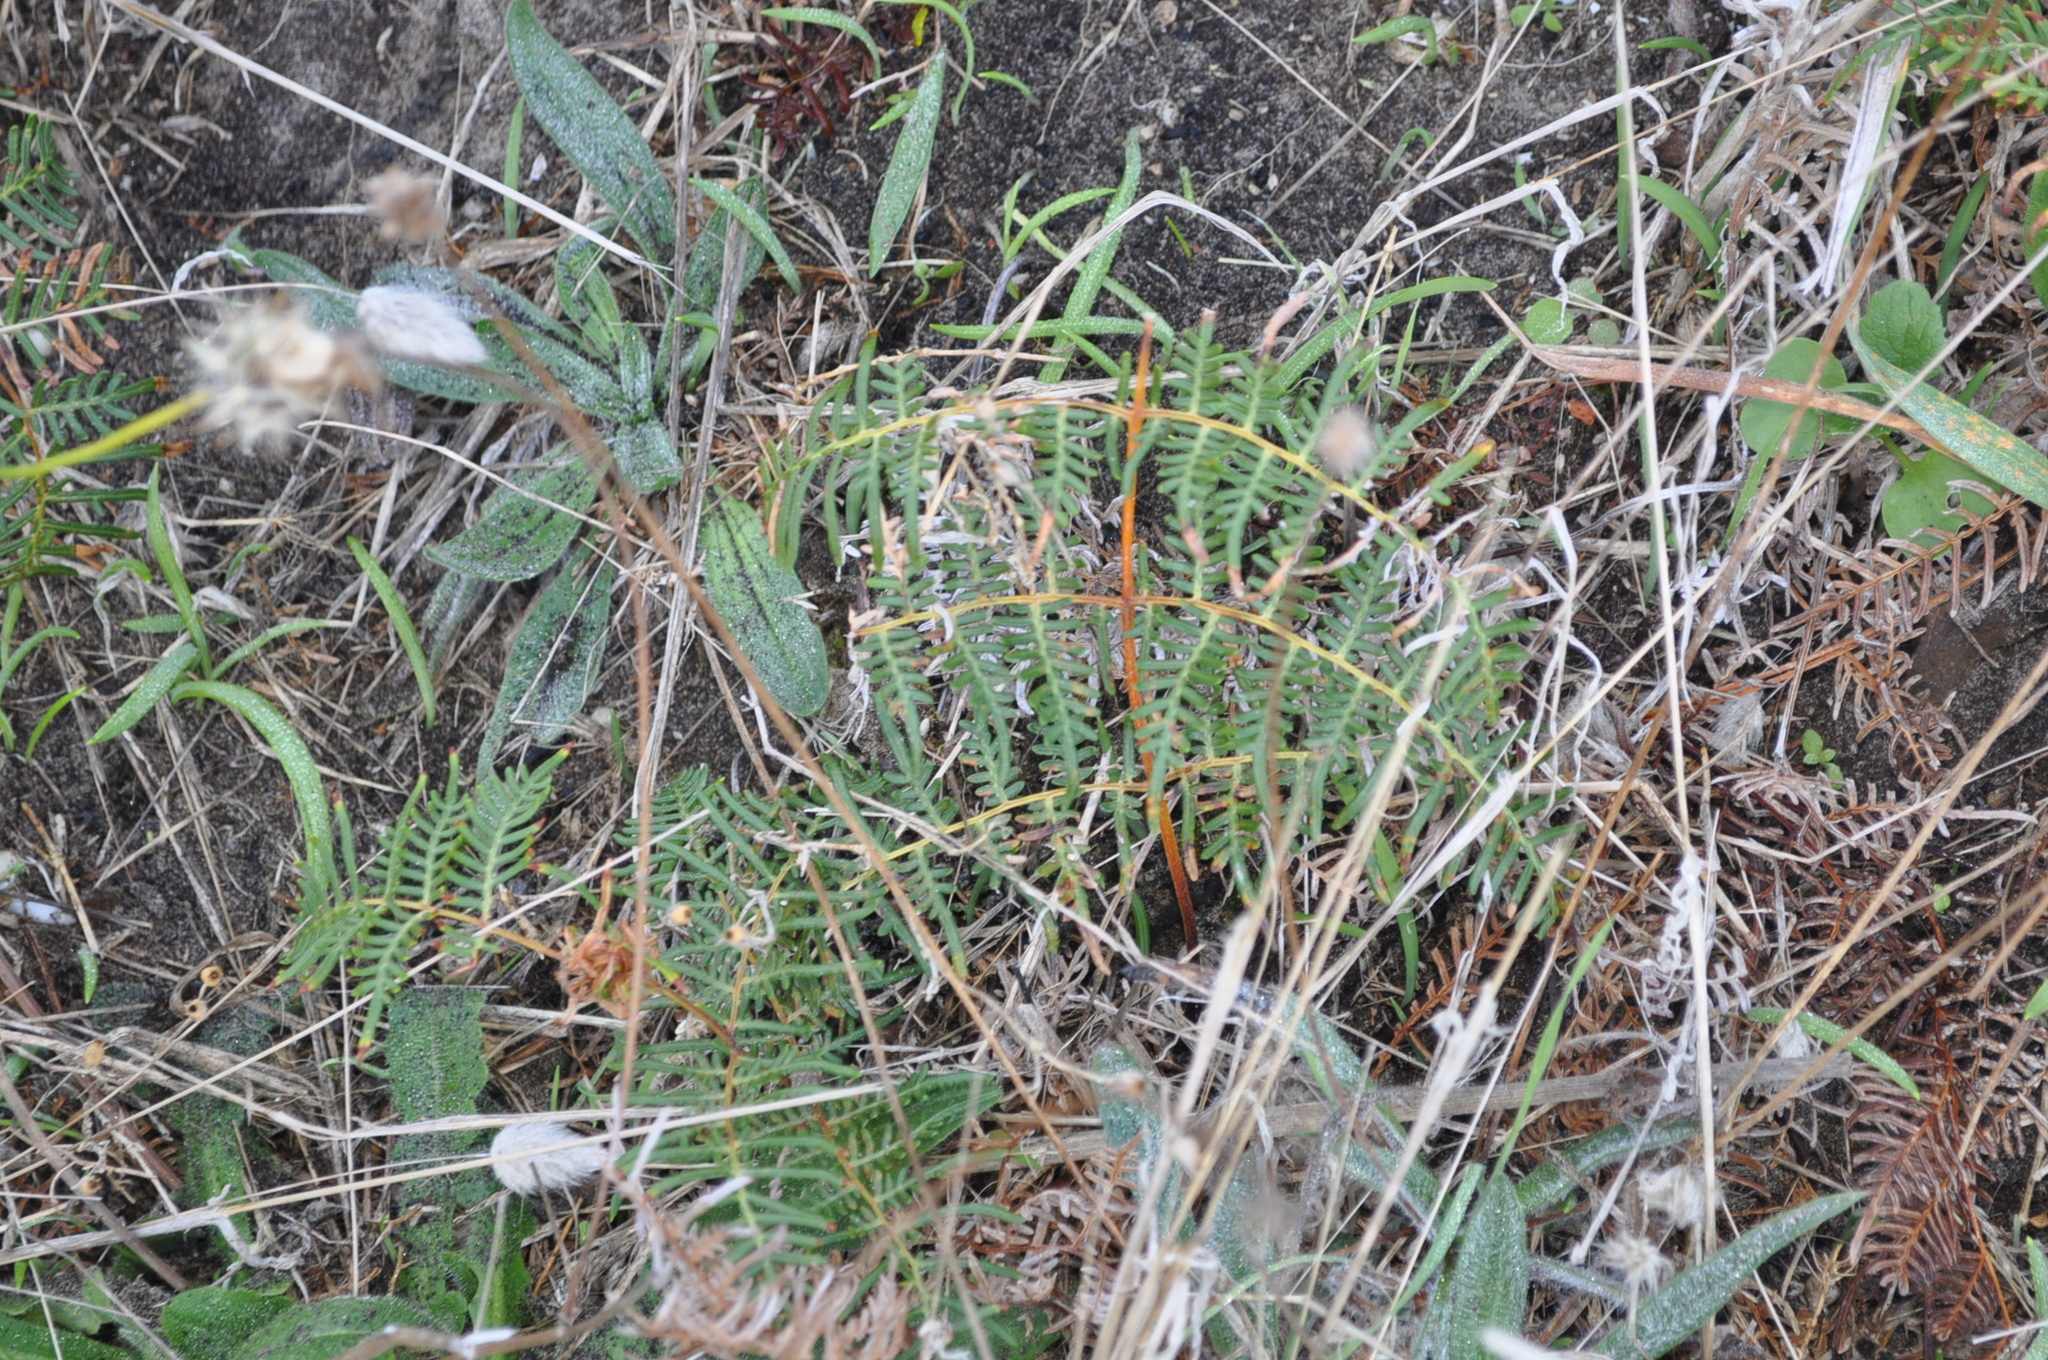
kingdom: Plantae
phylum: Tracheophyta
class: Polypodiopsida
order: Polypodiales
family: Dennstaedtiaceae
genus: Pteridium
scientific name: Pteridium esculentum
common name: Bracken fern
